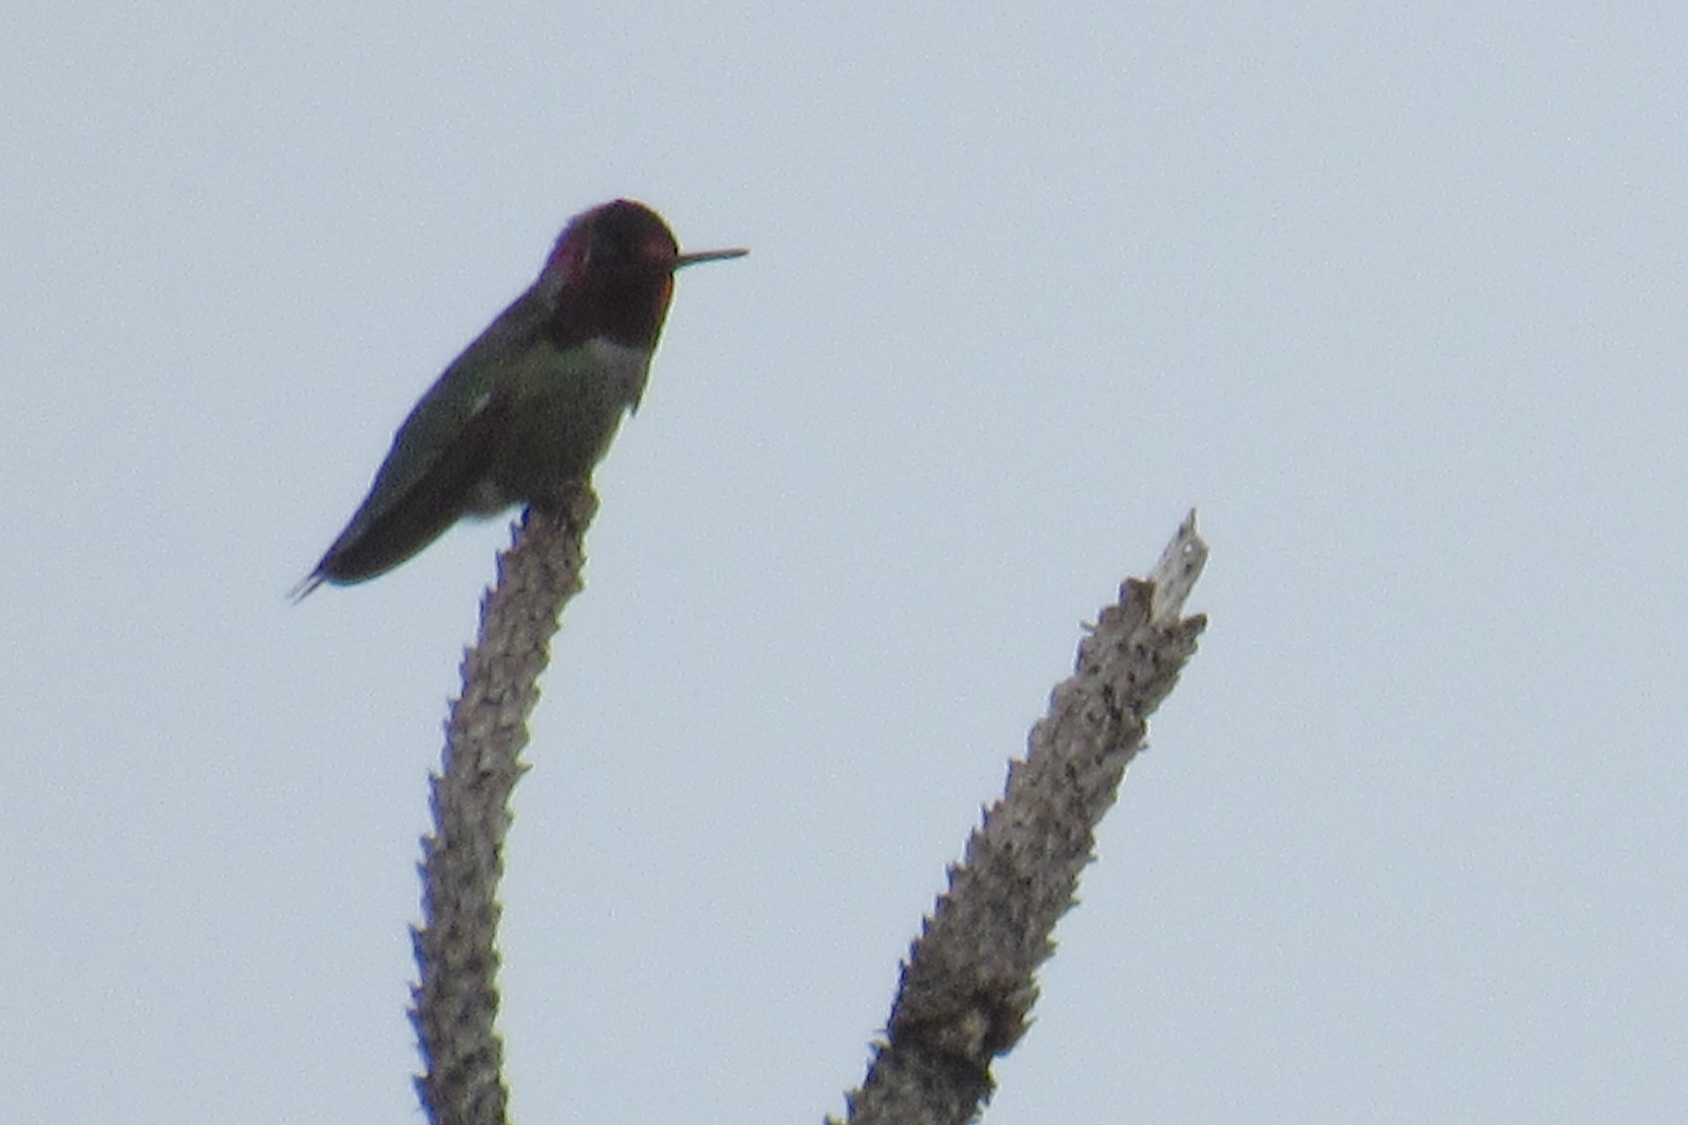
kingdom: Animalia
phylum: Chordata
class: Aves
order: Apodiformes
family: Trochilidae
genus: Calypte
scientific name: Calypte anna
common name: Anna's hummingbird
